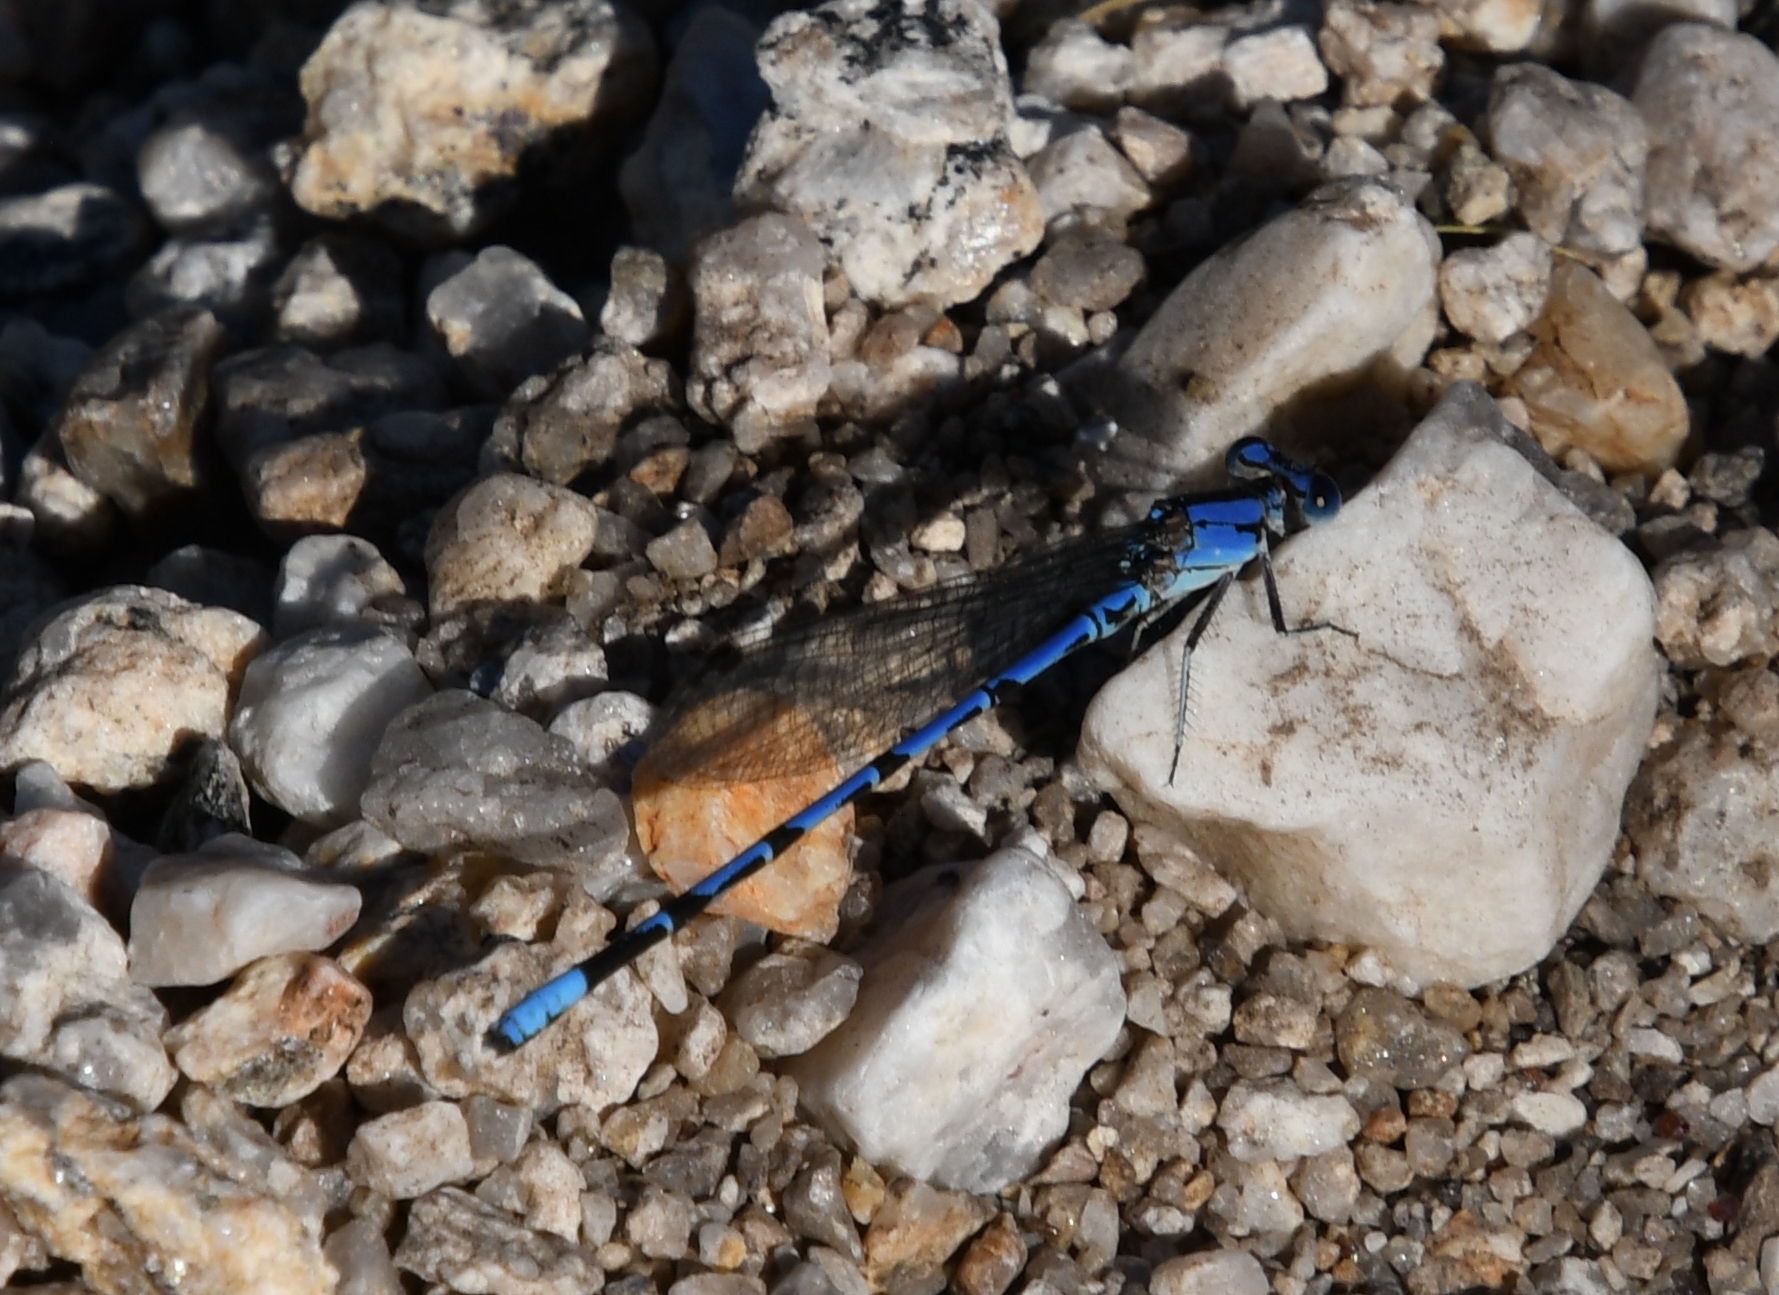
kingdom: Animalia
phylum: Arthropoda
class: Insecta
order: Odonata
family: Coenagrionidae
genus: Argia
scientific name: Argia extranea
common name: Spine-tipped dancer
